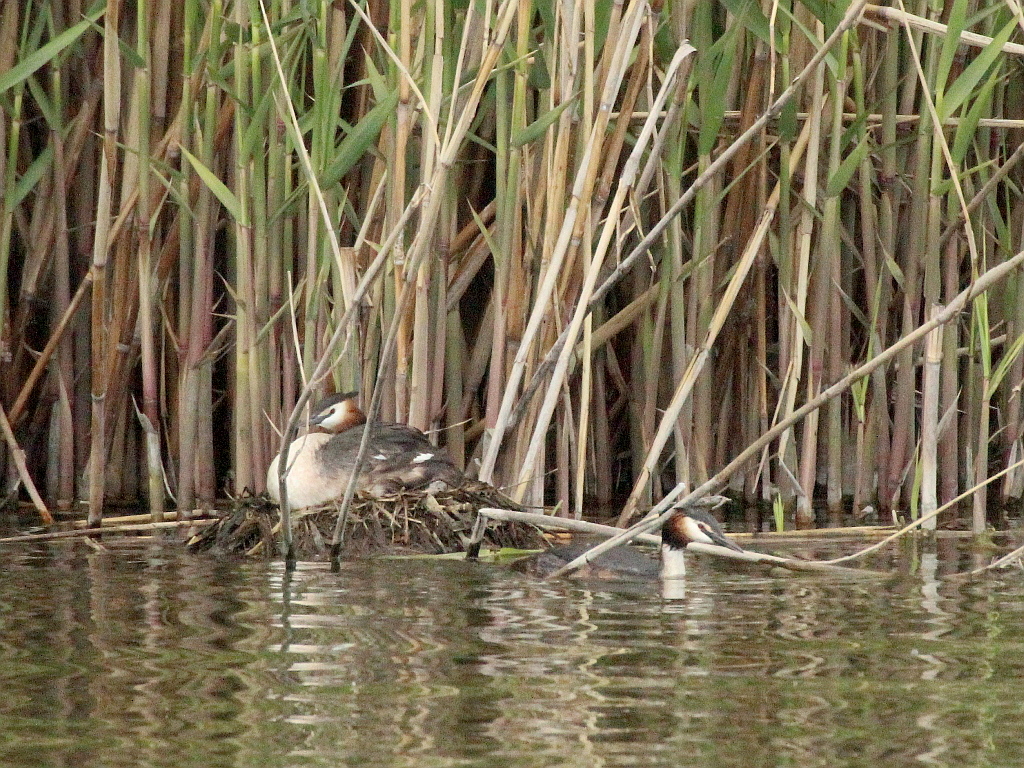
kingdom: Animalia
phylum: Chordata
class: Aves
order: Podicipediformes
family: Podicipedidae
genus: Podiceps
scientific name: Podiceps cristatus
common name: Great crested grebe
